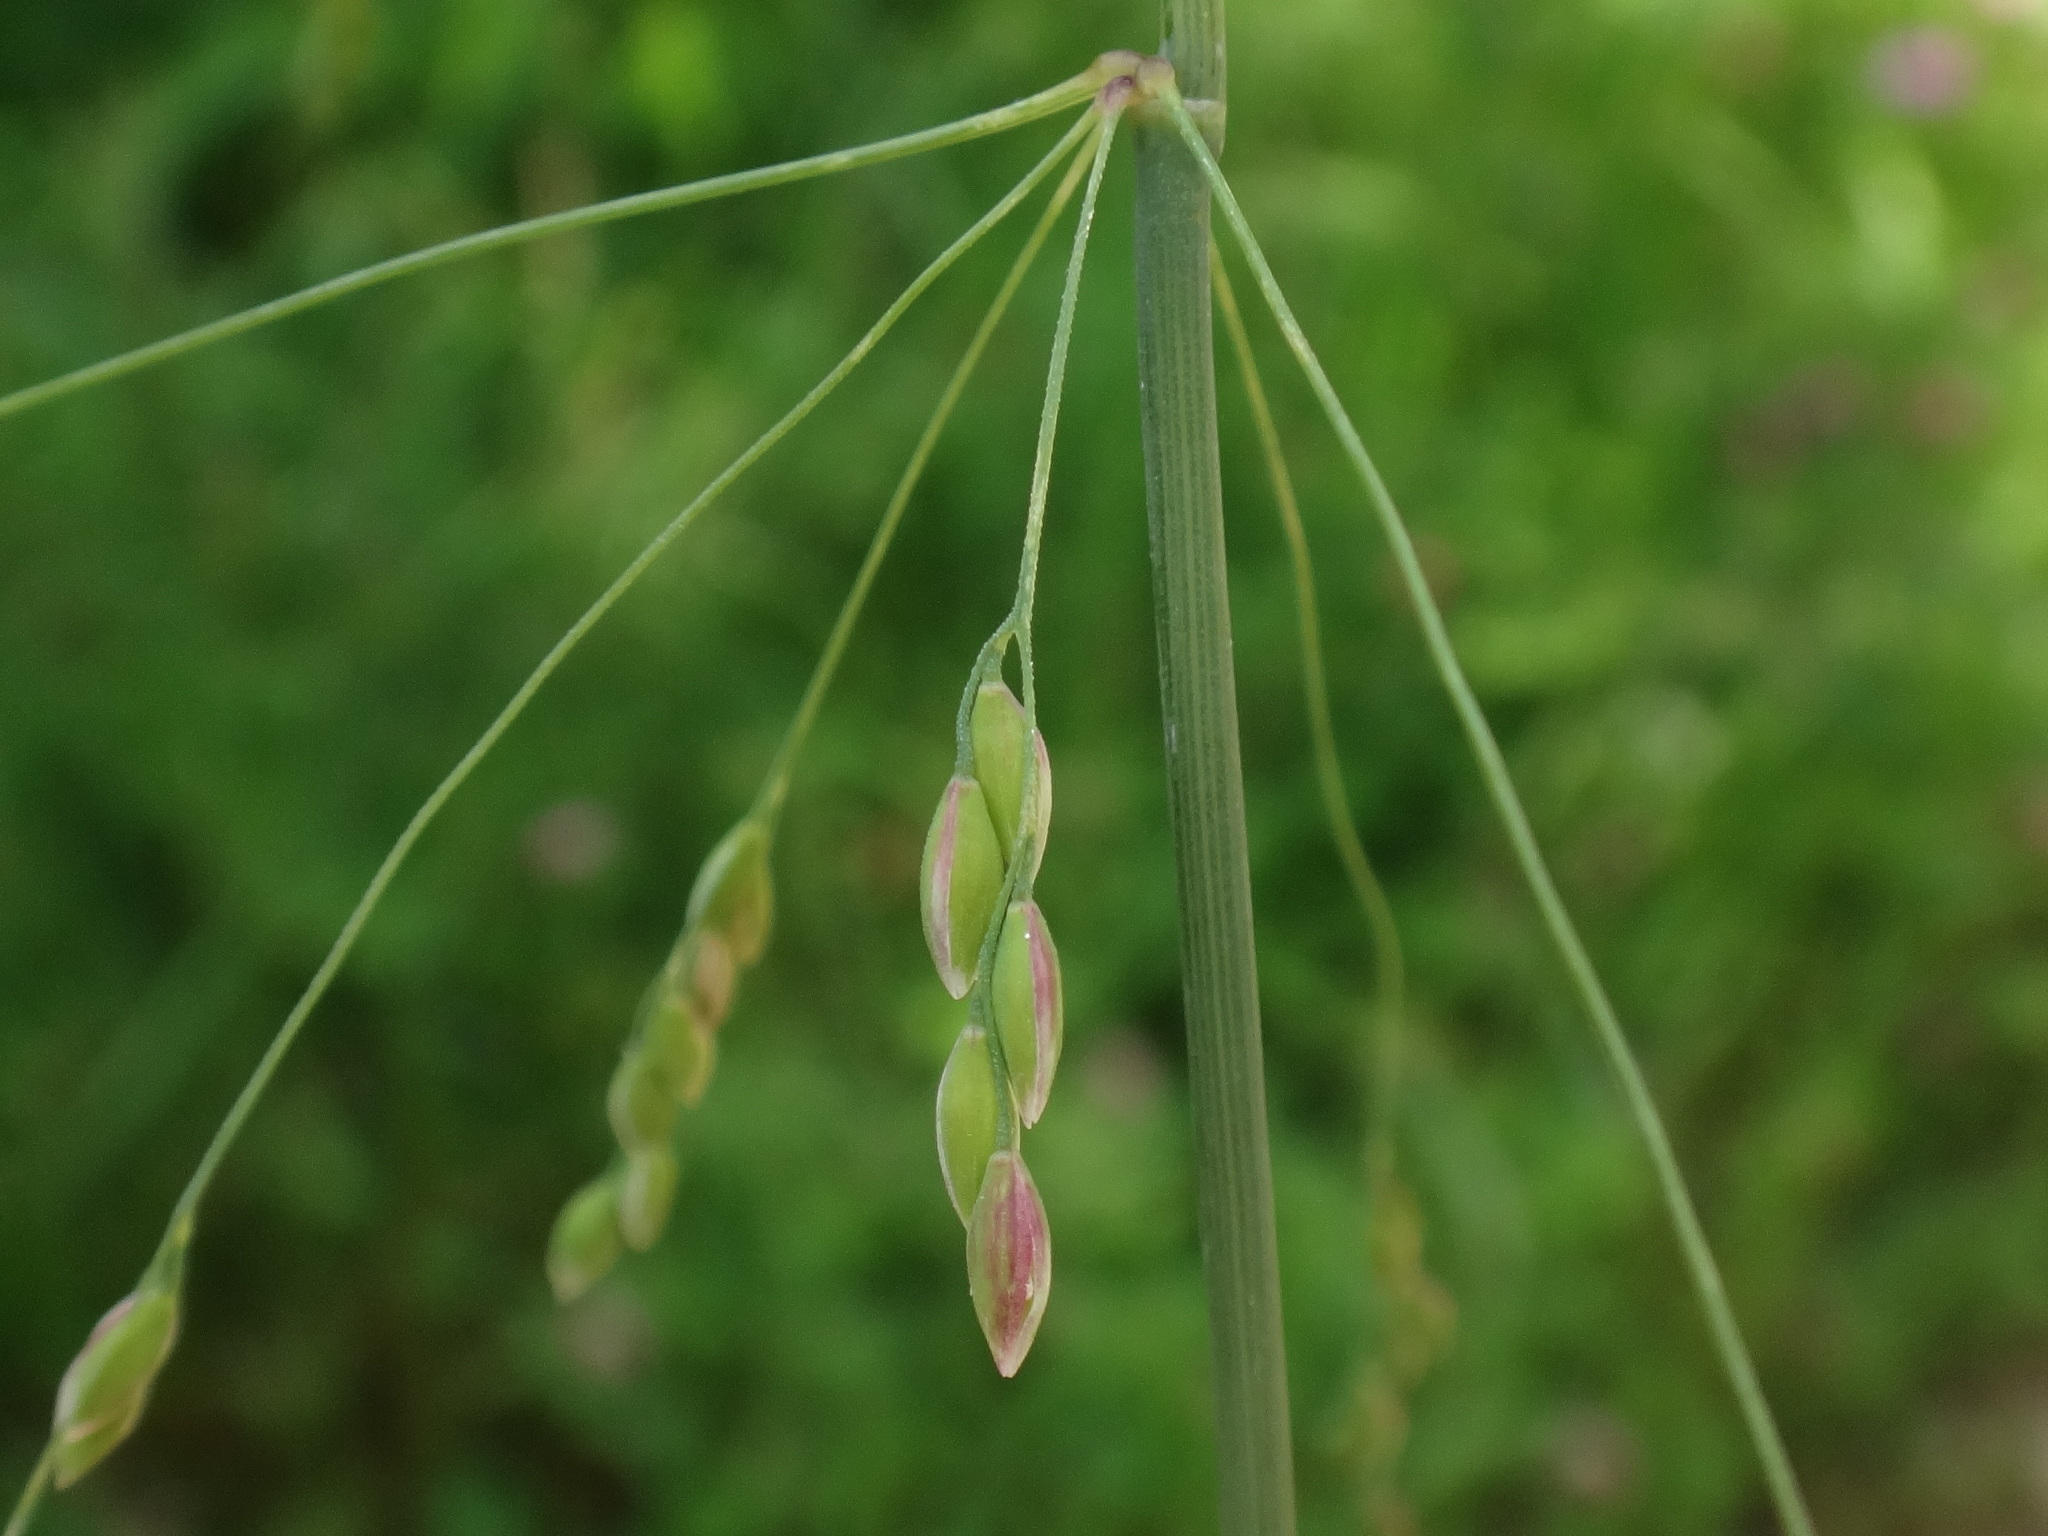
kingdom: Plantae
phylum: Tracheophyta
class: Liliopsida
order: Poales
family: Poaceae
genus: Milium
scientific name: Milium effusum
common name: Wood millet
